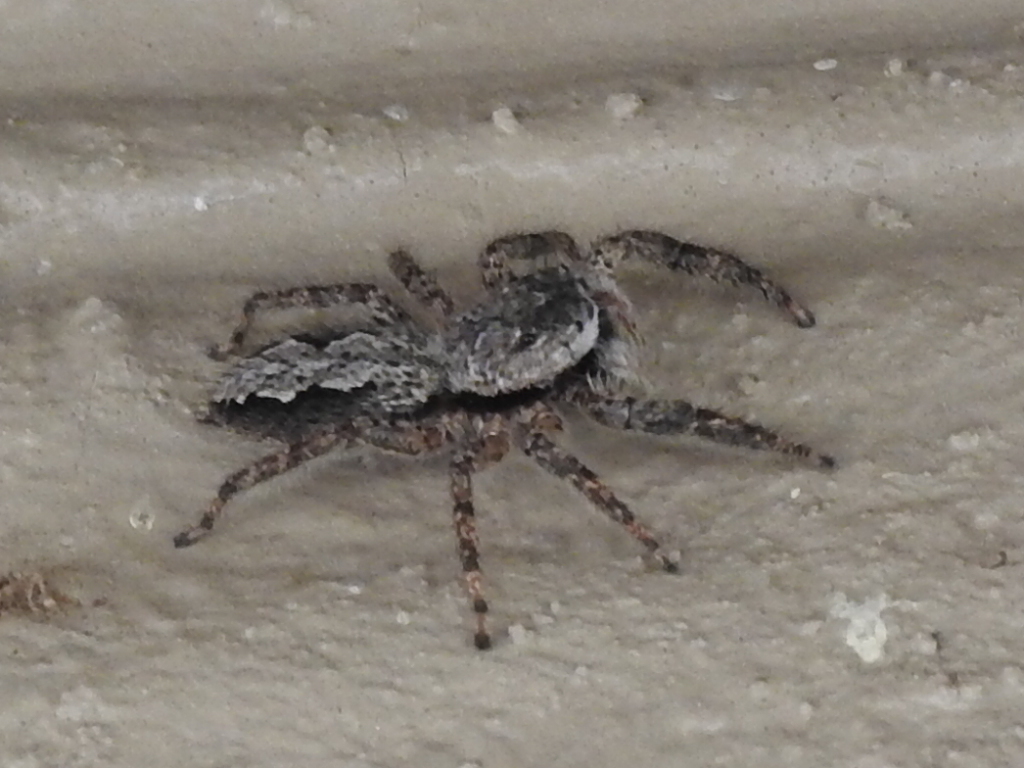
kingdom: Animalia
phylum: Arthropoda
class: Arachnida
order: Araneae
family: Salticidae
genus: Platycryptus
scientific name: Platycryptus undatus
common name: Tan jumping spider
